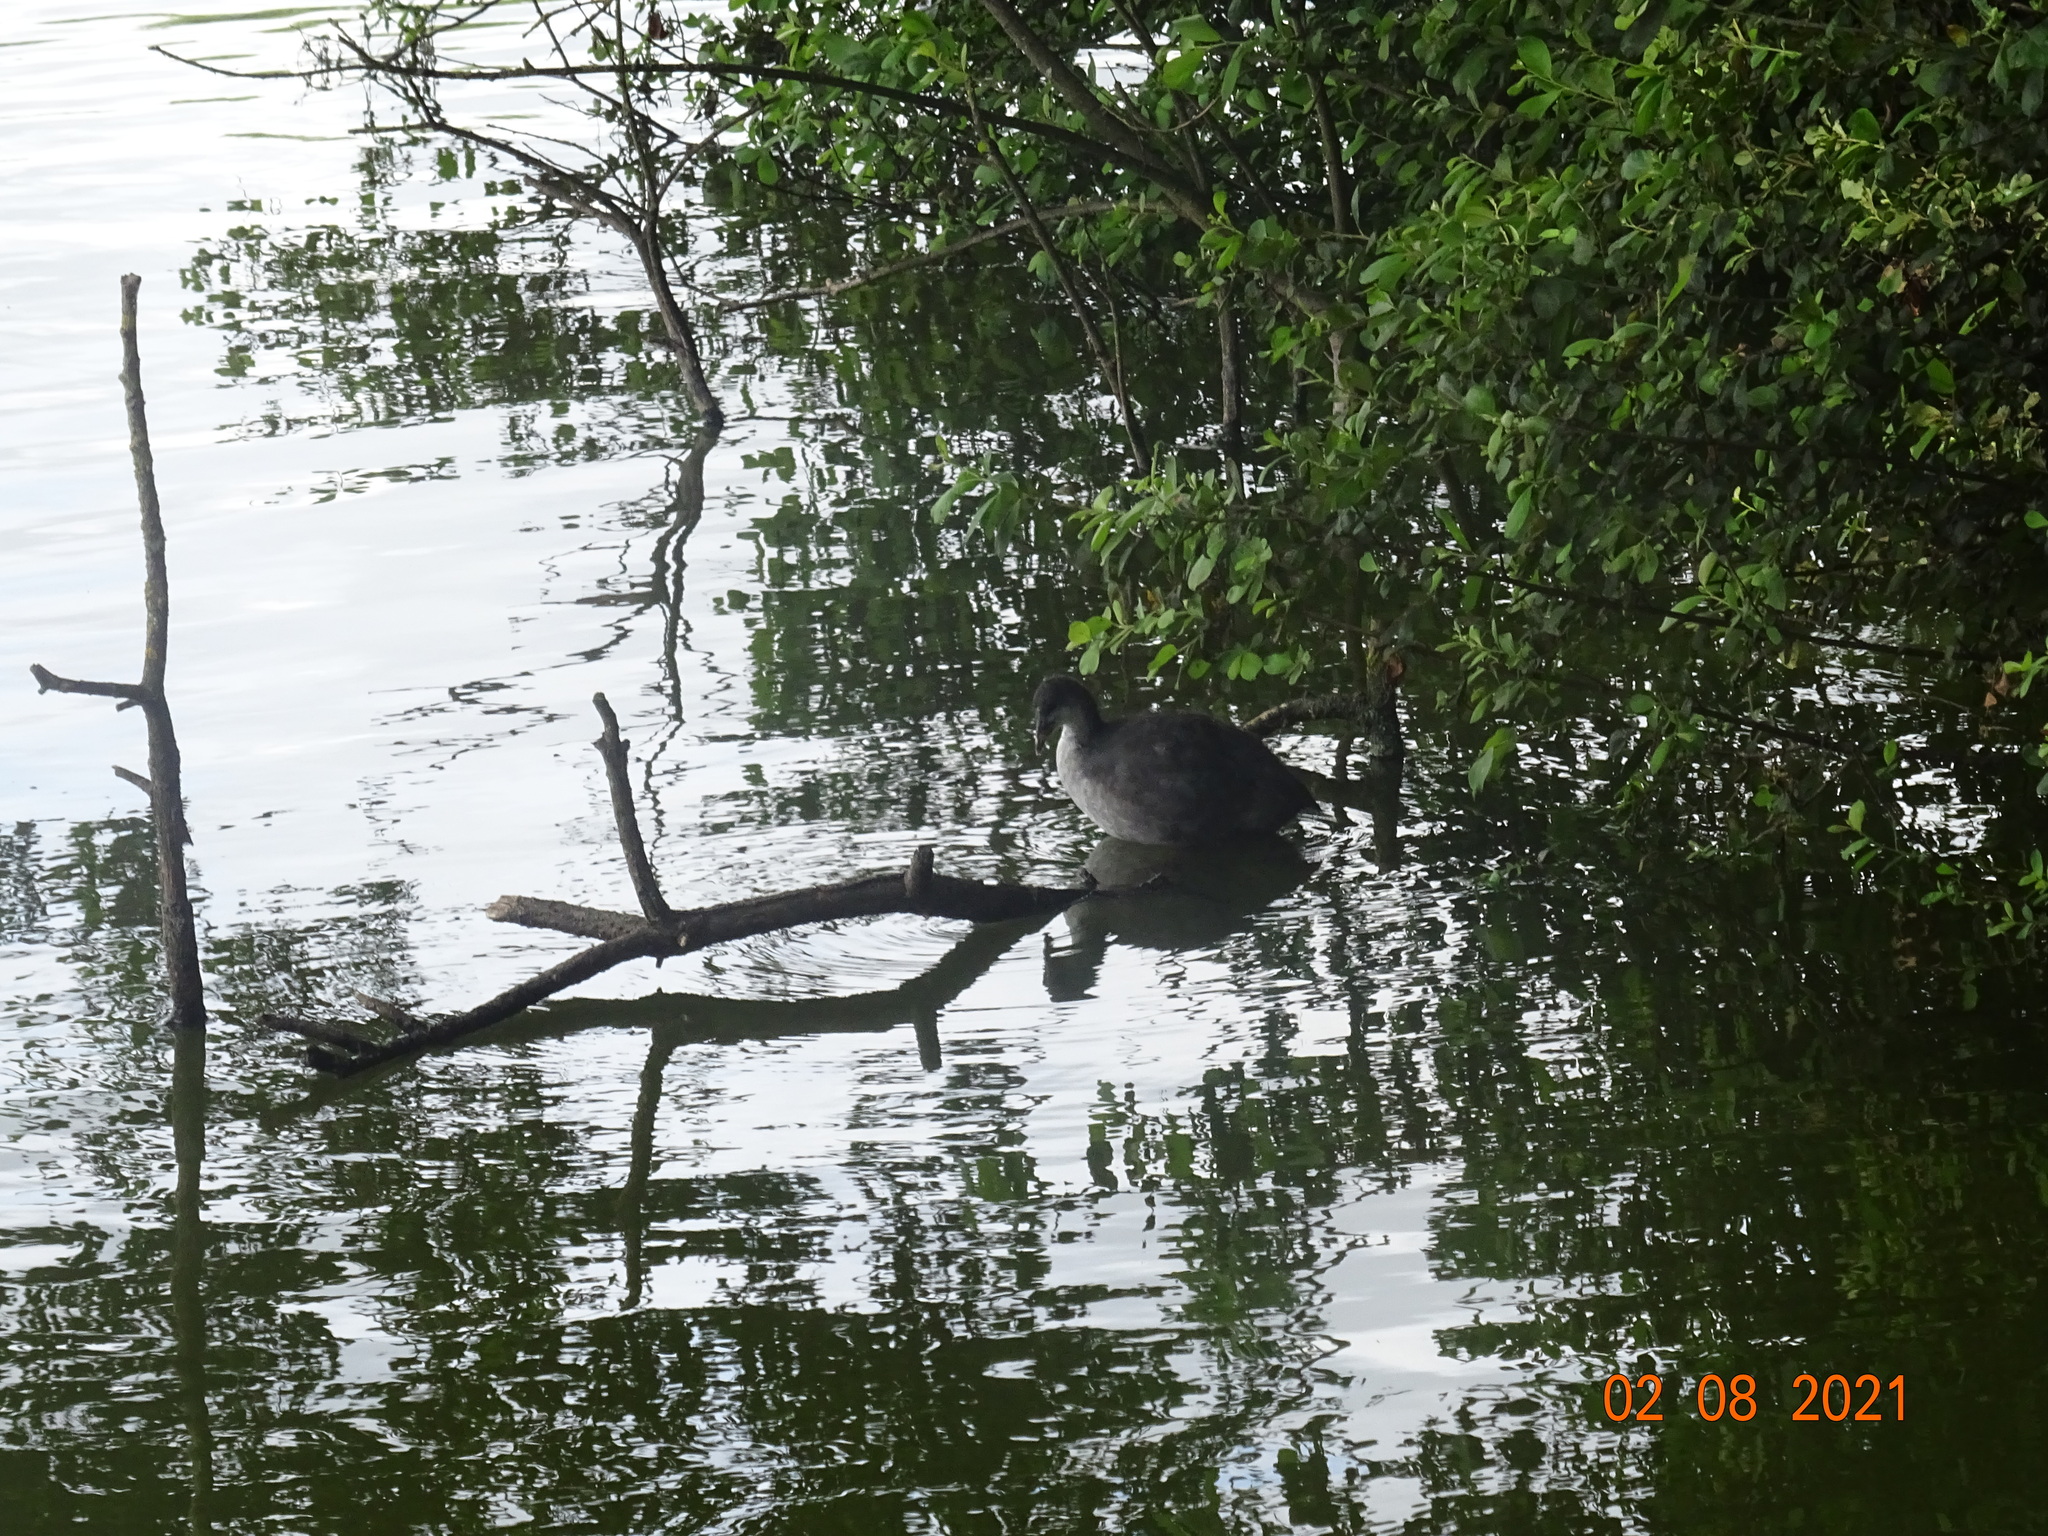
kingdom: Animalia
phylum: Chordata
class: Aves
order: Gruiformes
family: Rallidae
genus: Fulica
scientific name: Fulica atra
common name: Eurasian coot
